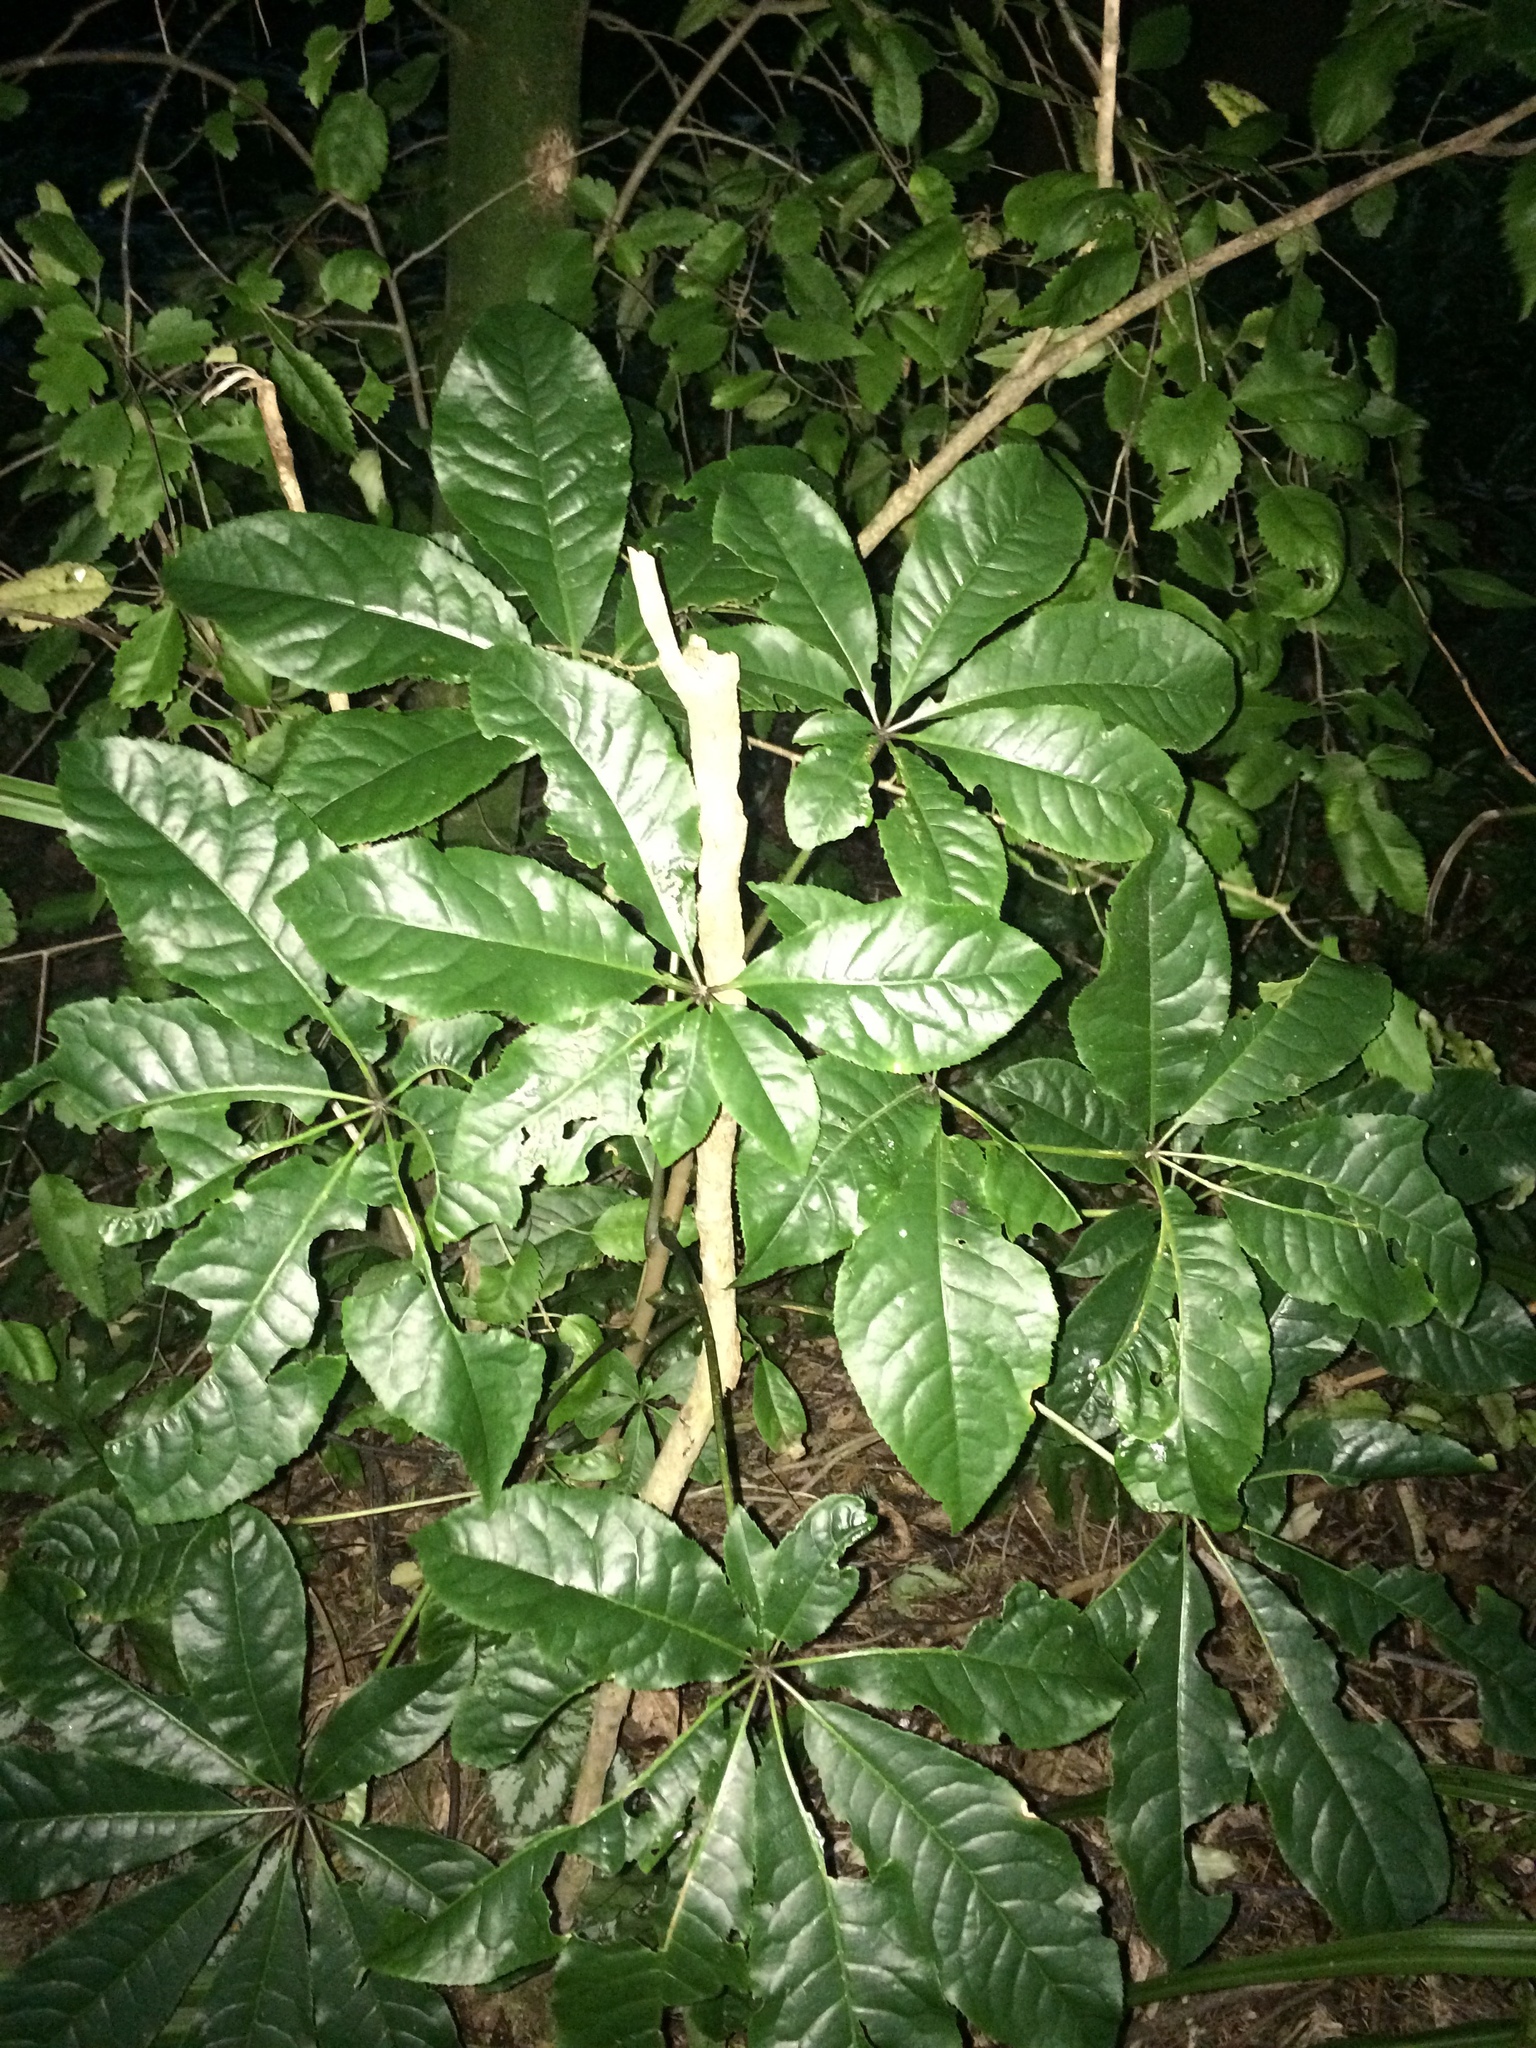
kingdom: Plantae
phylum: Tracheophyta
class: Magnoliopsida
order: Apiales
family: Araliaceae
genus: Schefflera
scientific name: Schefflera digitata
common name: Pate
